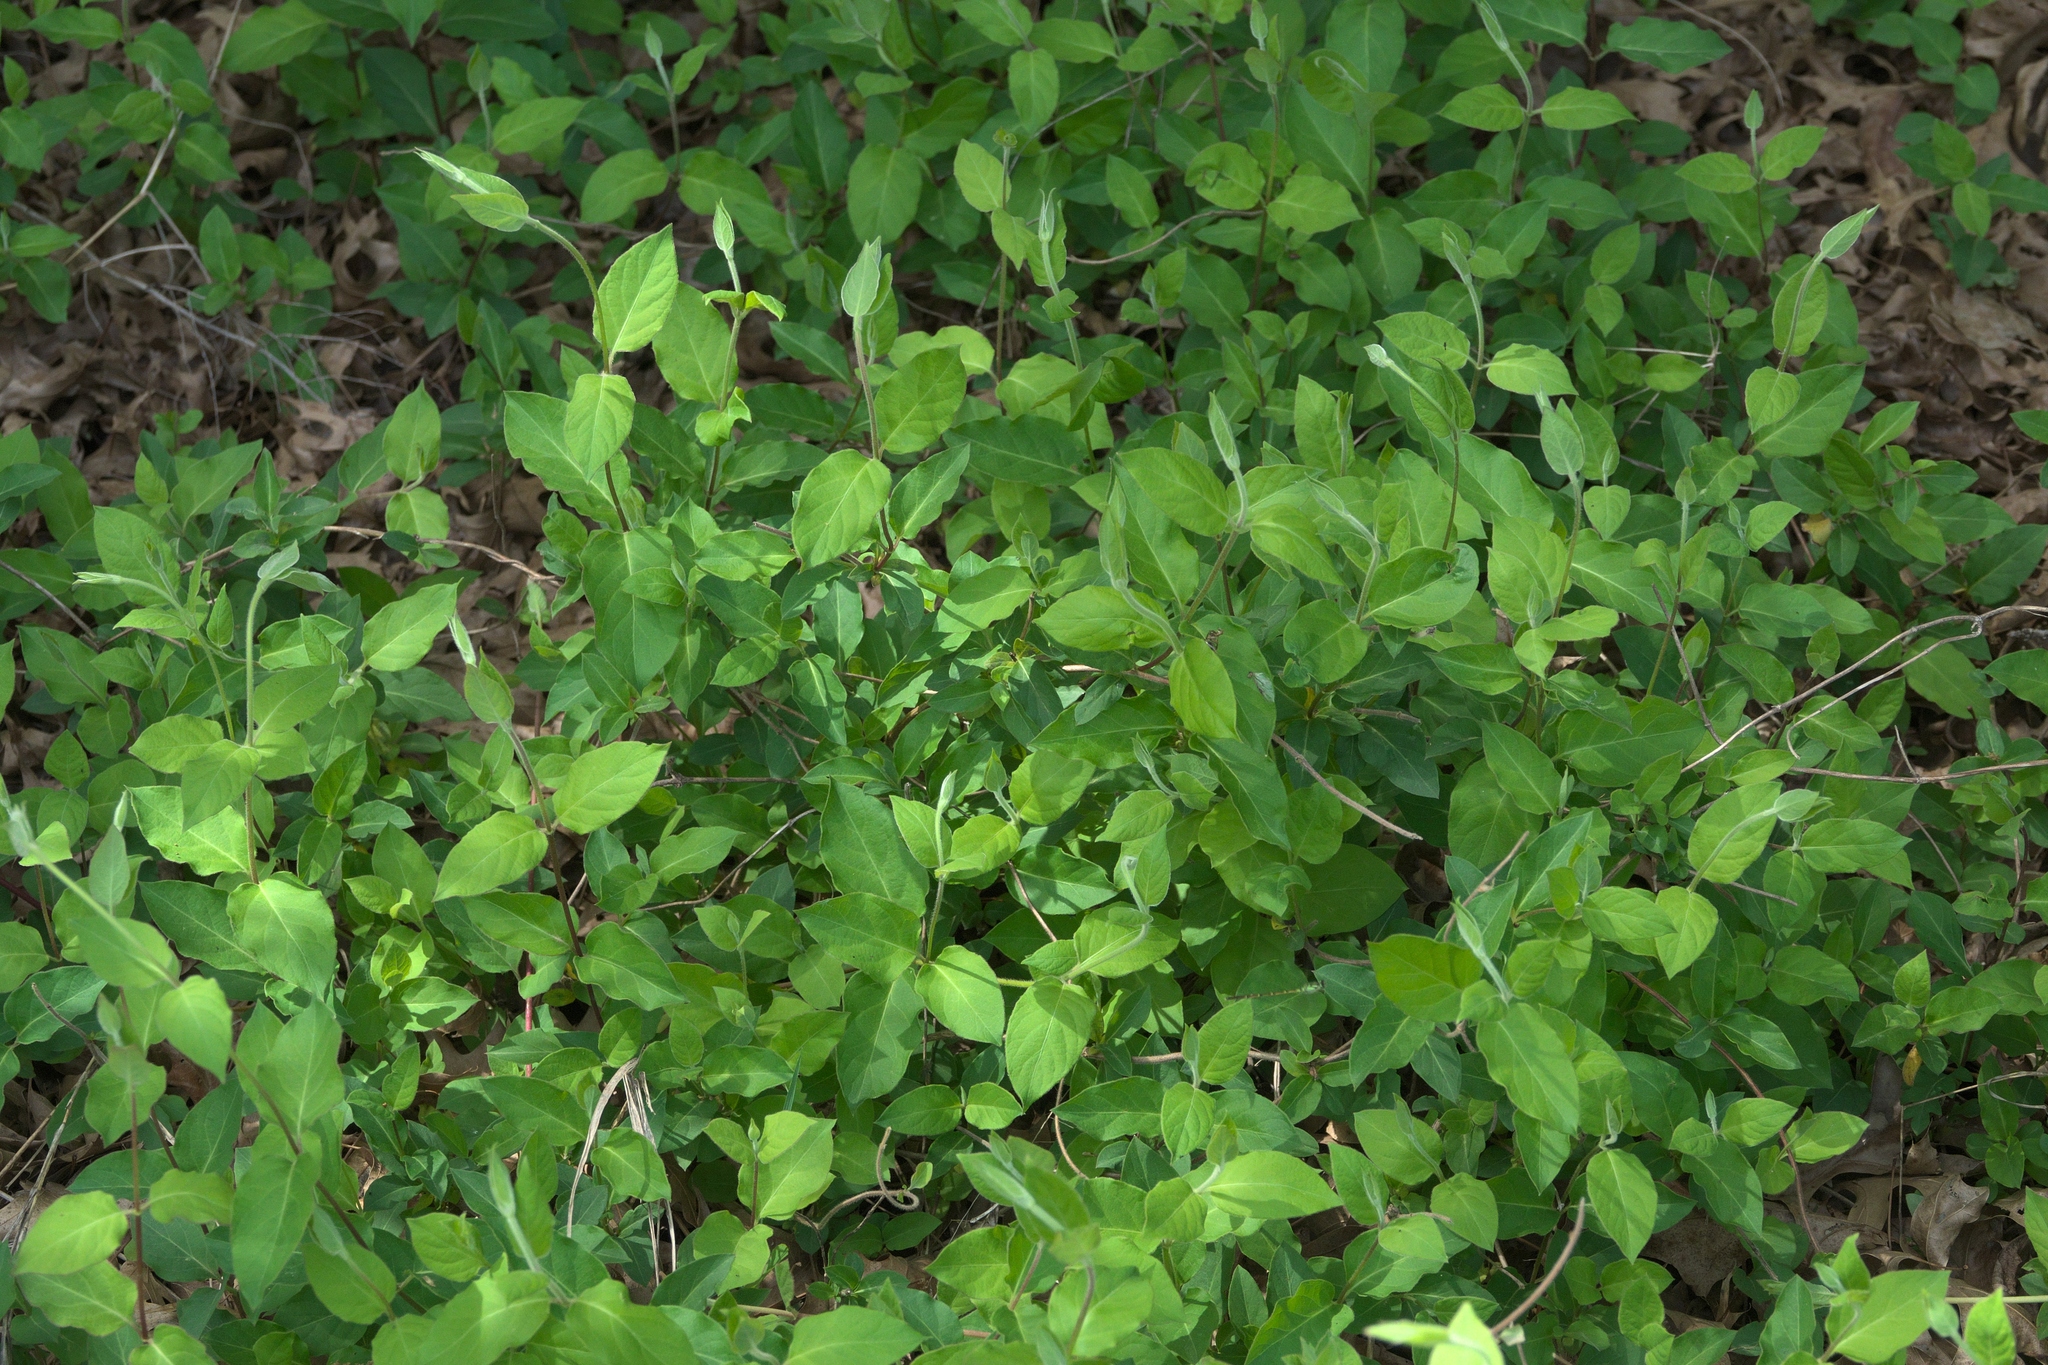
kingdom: Plantae
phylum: Tracheophyta
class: Magnoliopsida
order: Dipsacales
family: Caprifoliaceae
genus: Lonicera
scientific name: Lonicera japonica
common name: Japanese honeysuckle
